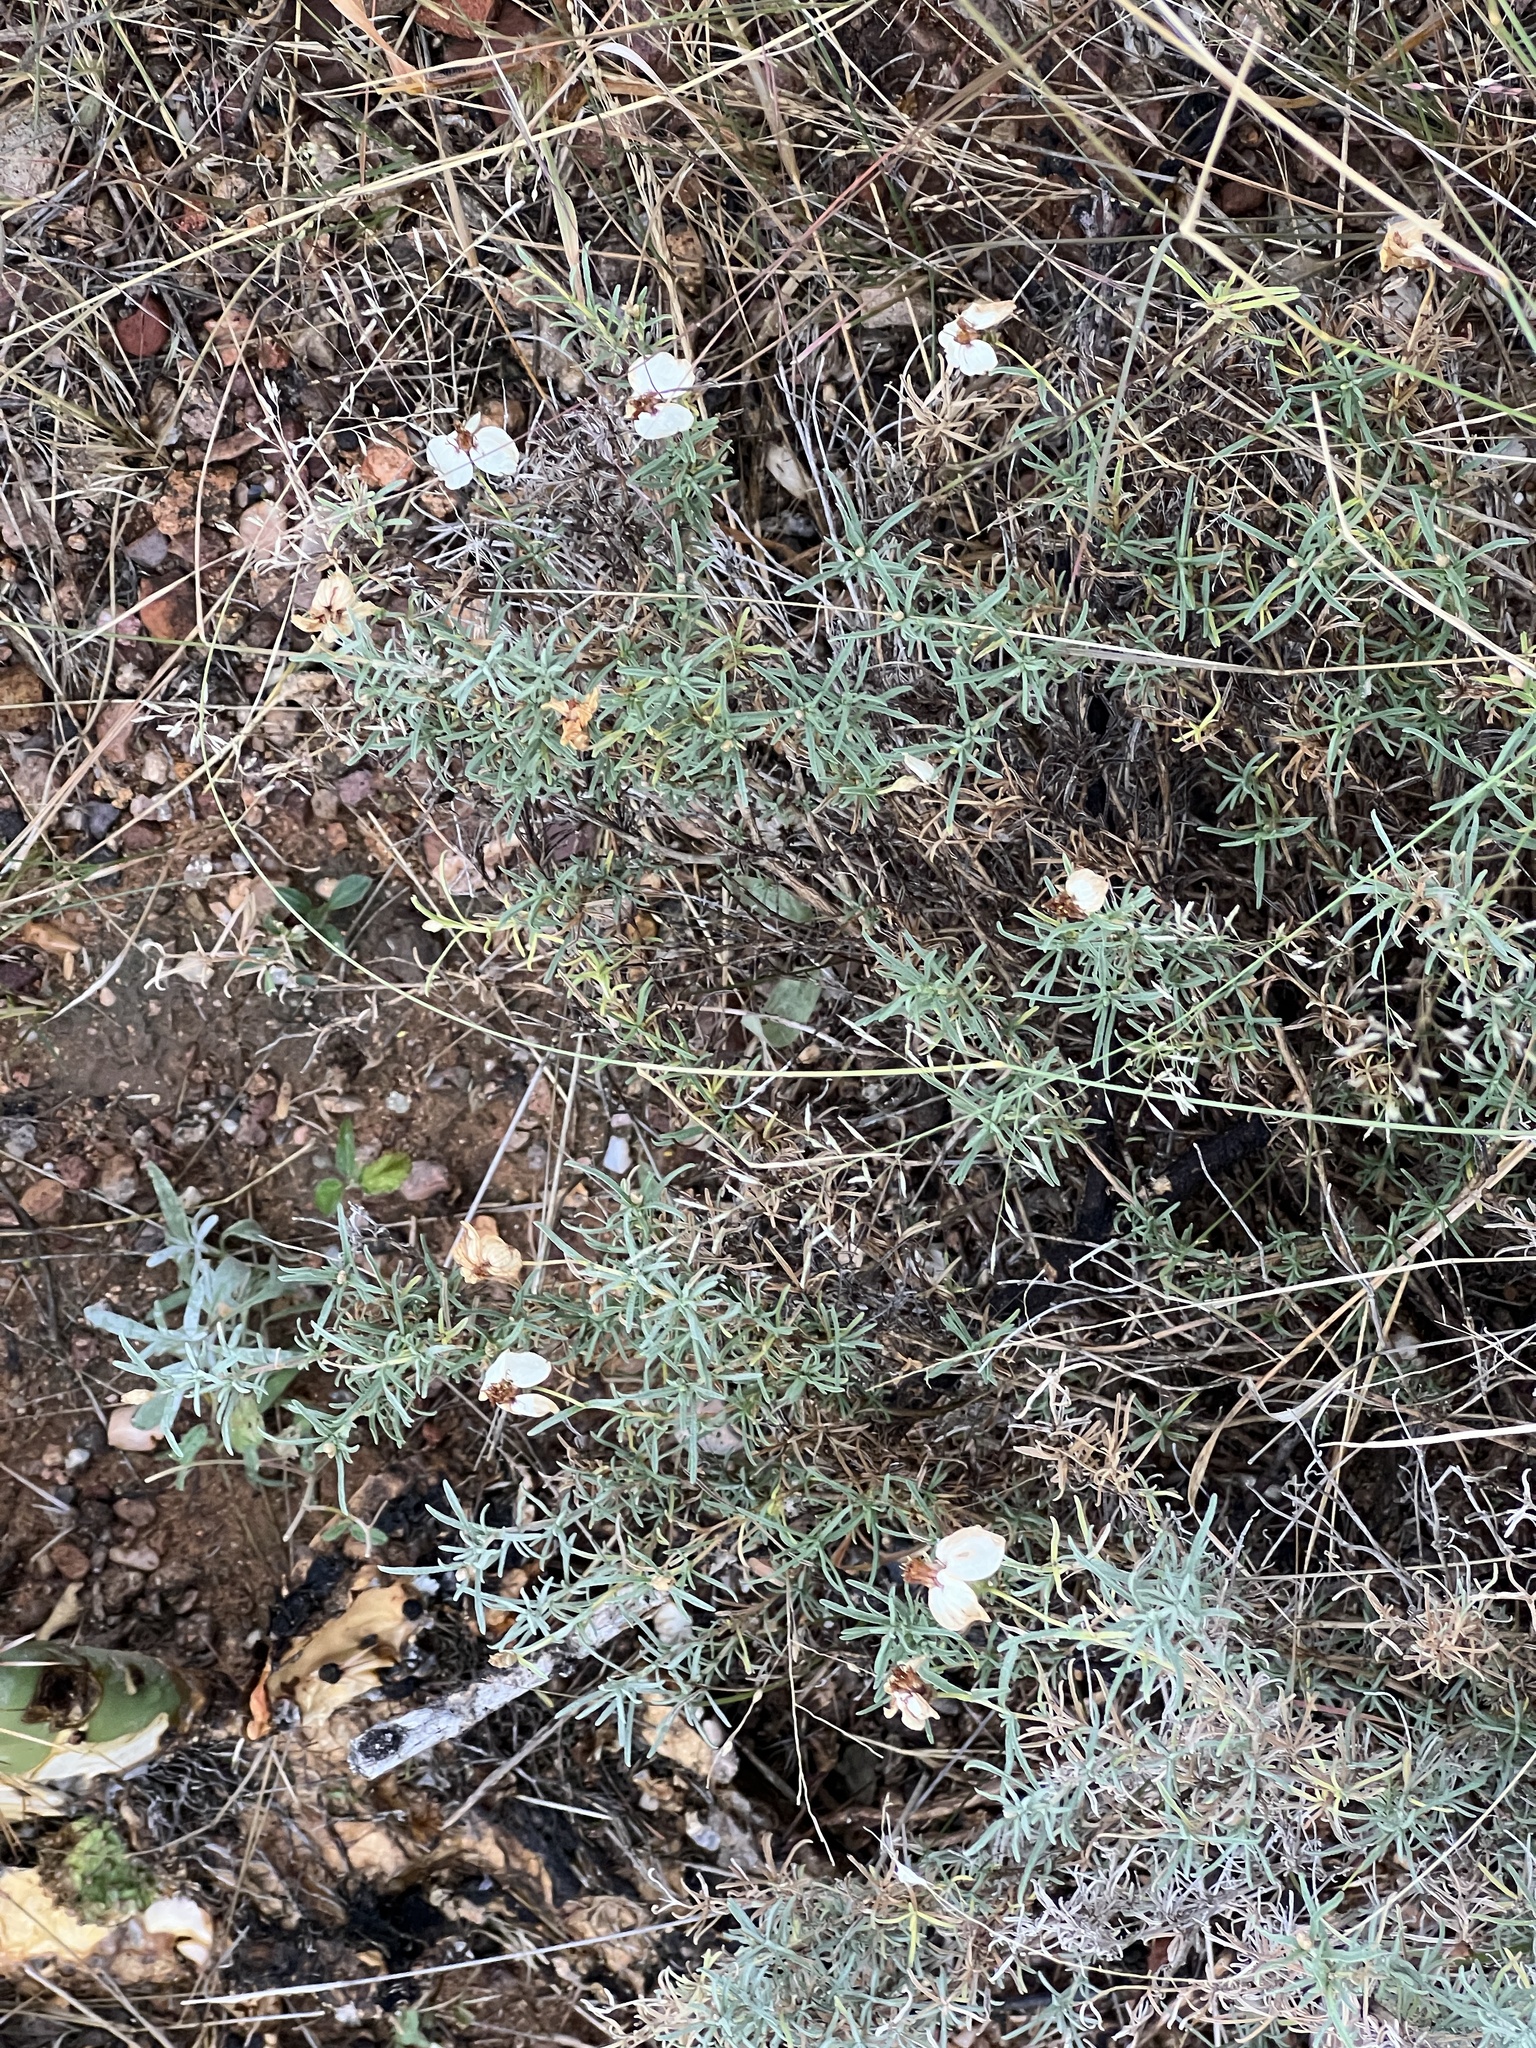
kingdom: Plantae
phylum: Tracheophyta
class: Magnoliopsida
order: Asterales
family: Asteraceae
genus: Zinnia
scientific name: Zinnia acerosa
